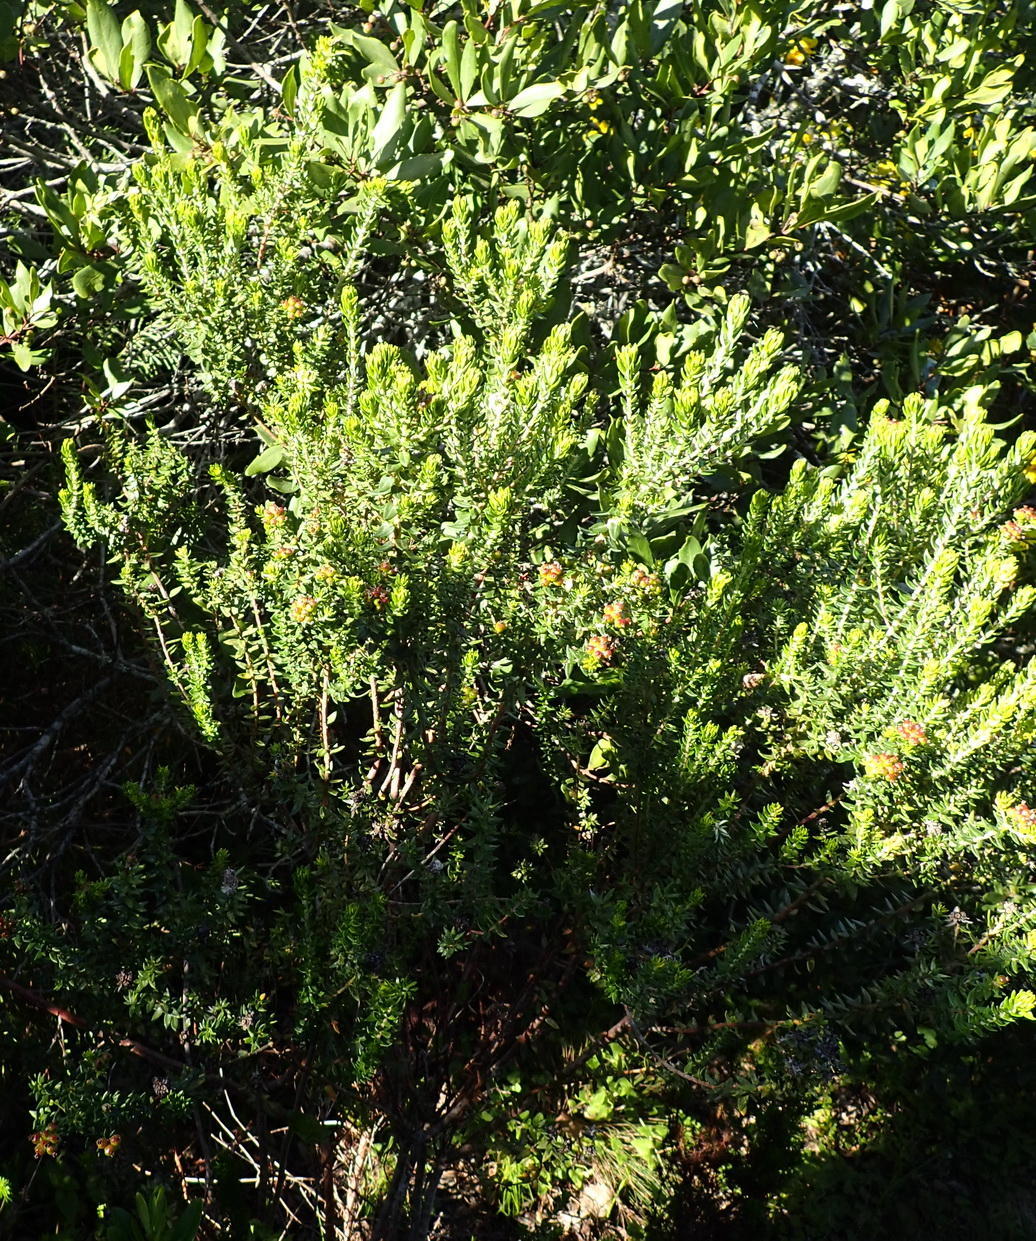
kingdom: Plantae
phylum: Tracheophyta
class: Magnoliopsida
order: Rosales
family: Rhamnaceae
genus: Phylica
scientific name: Phylica litoralis
